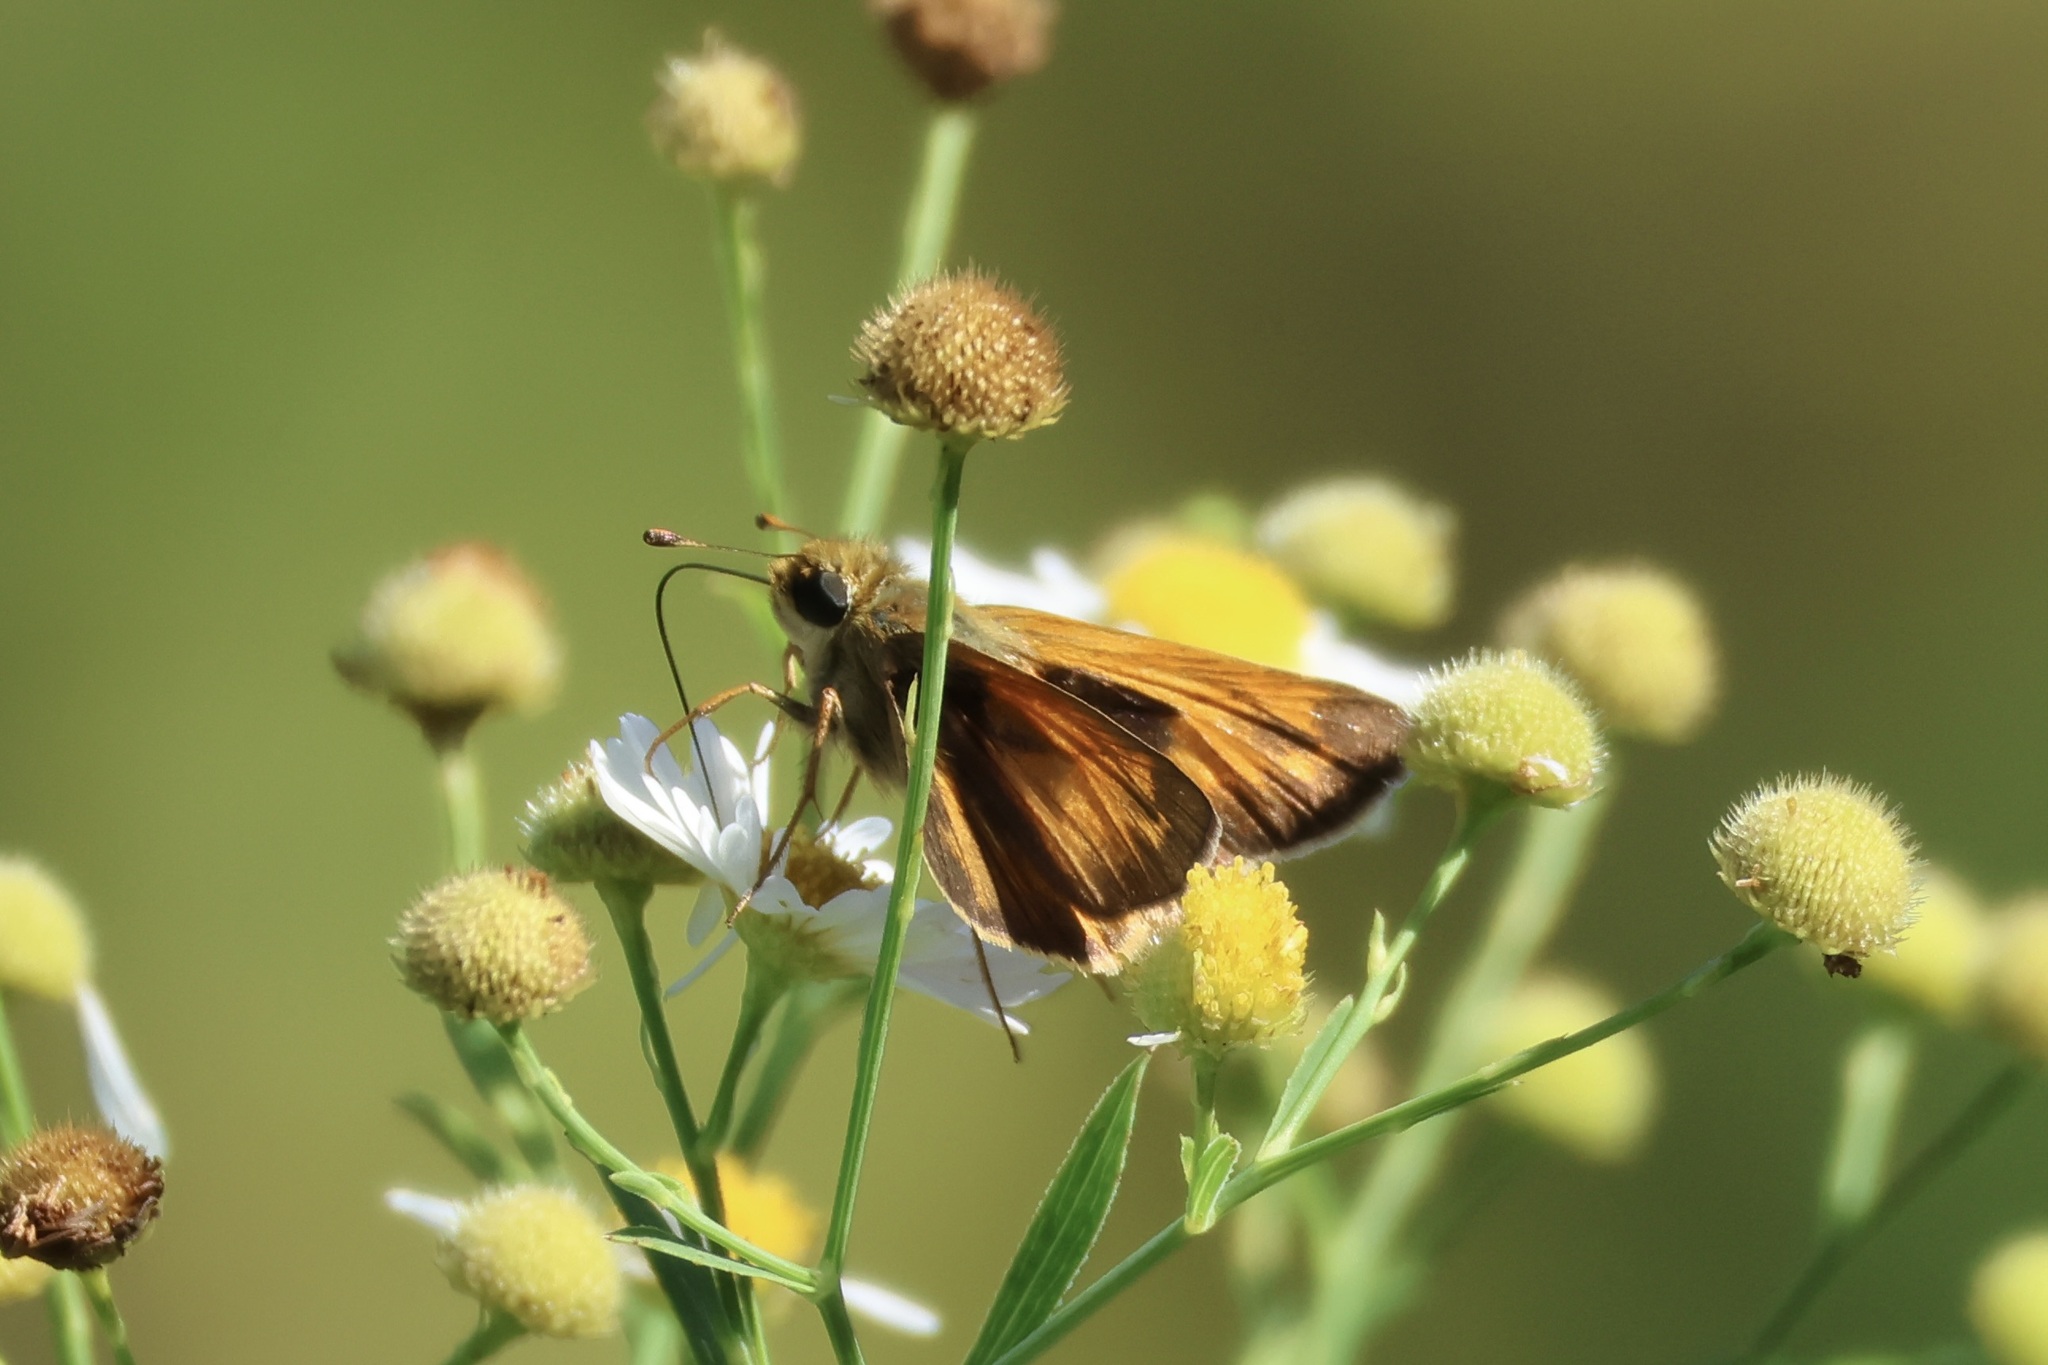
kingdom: Animalia
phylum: Arthropoda
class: Insecta
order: Lepidoptera
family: Hesperiidae
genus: Atalopedes
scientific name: Atalopedes
